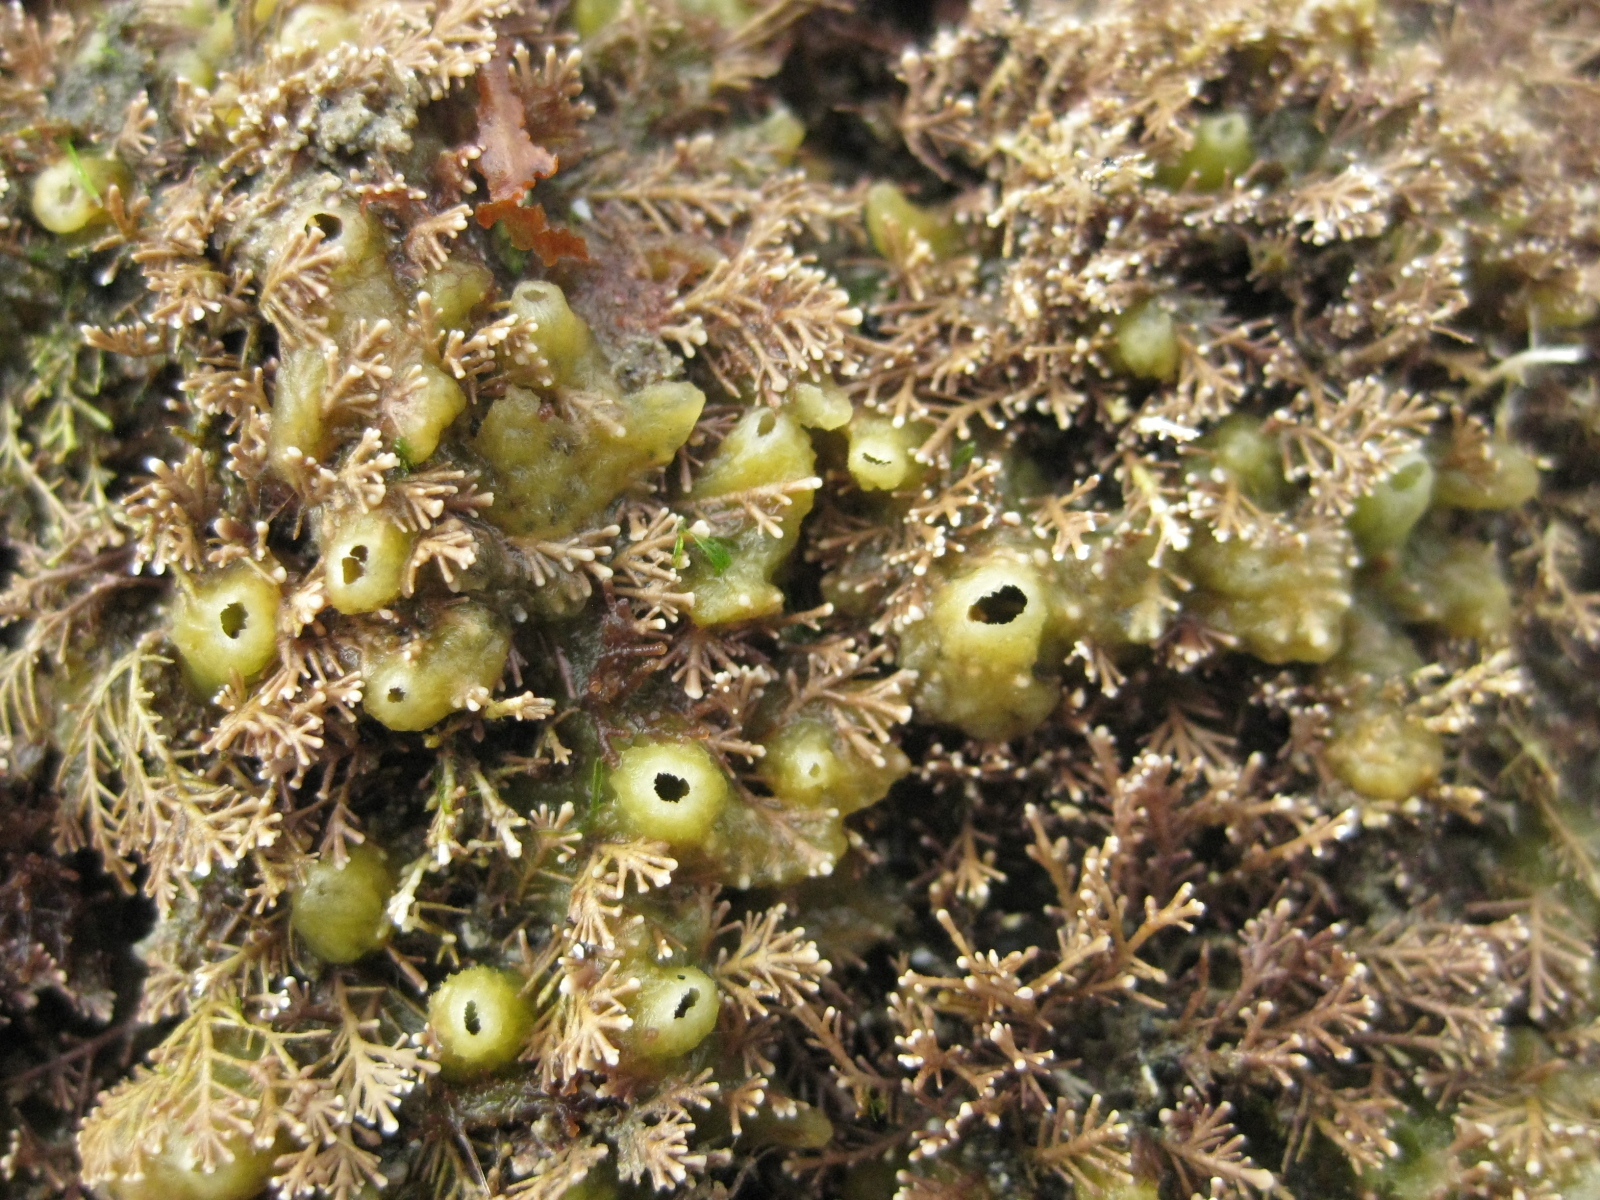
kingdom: Plantae
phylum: Rhodophyta
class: Florideophyceae
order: Corallinales
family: Corallinaceae
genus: Corallina
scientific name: Corallina officinalis
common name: Coral weed
